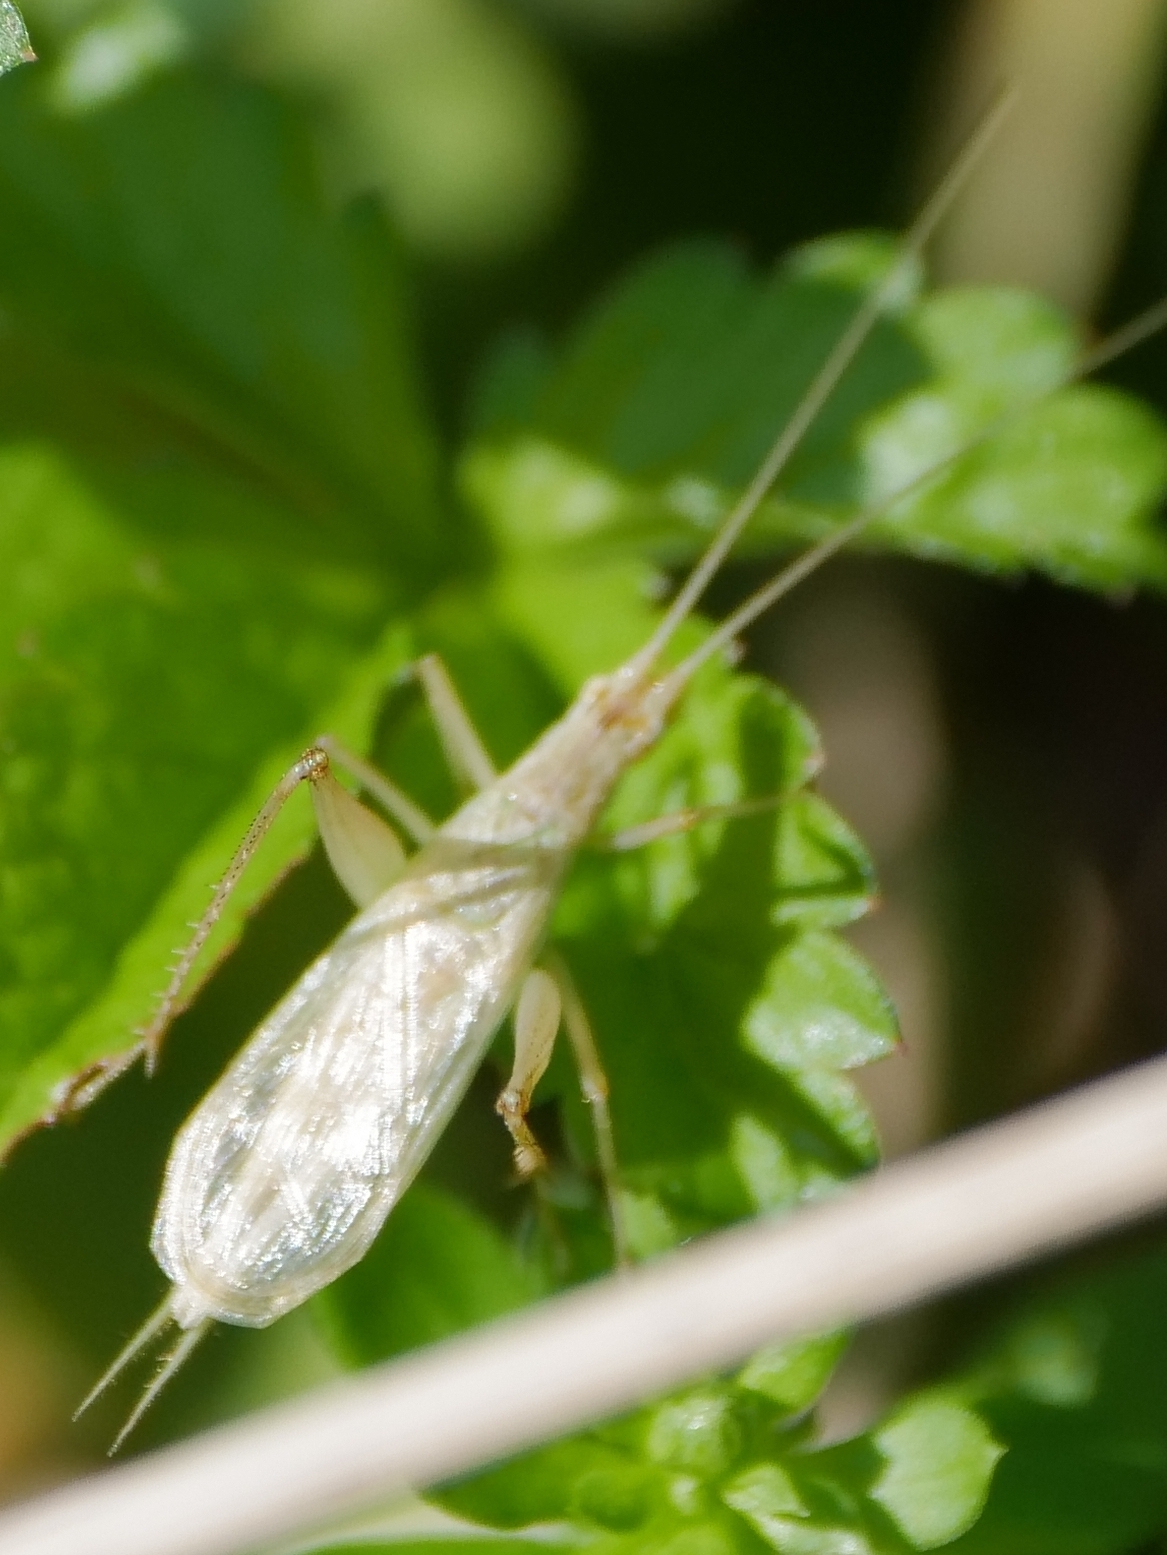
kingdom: Animalia
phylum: Arthropoda
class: Insecta
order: Orthoptera
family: Gryllidae
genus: Oecanthus
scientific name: Oecanthus pellucens
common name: Tree-cricket
